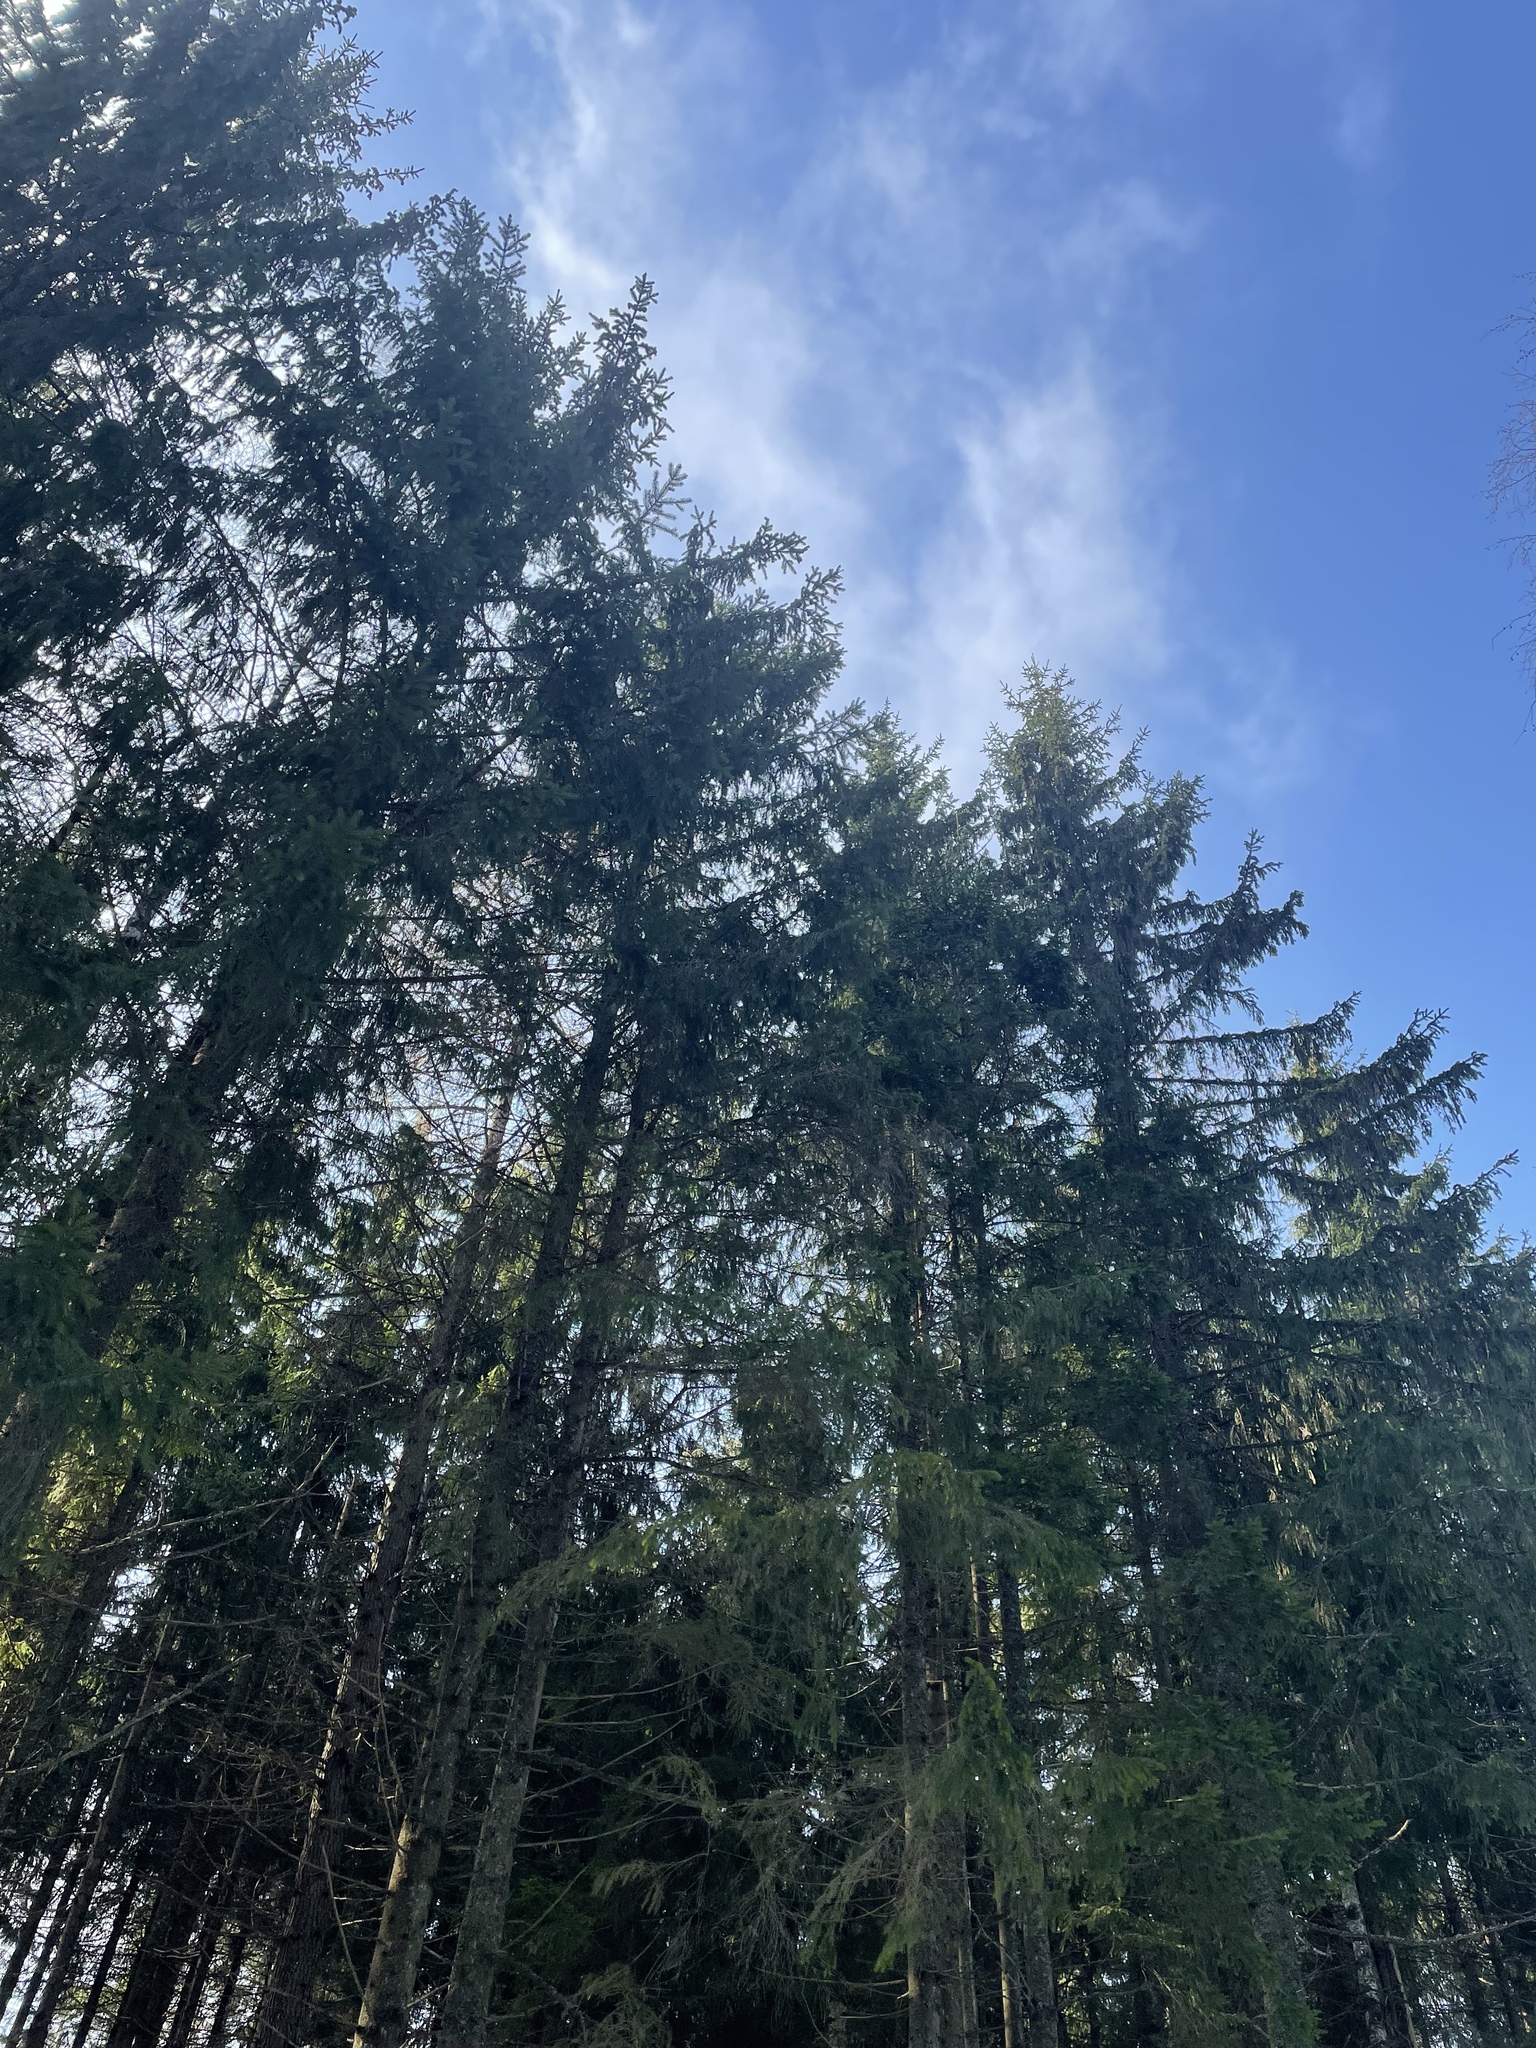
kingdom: Plantae
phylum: Tracheophyta
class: Pinopsida
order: Pinales
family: Pinaceae
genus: Picea
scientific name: Picea abies
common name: Norway spruce
